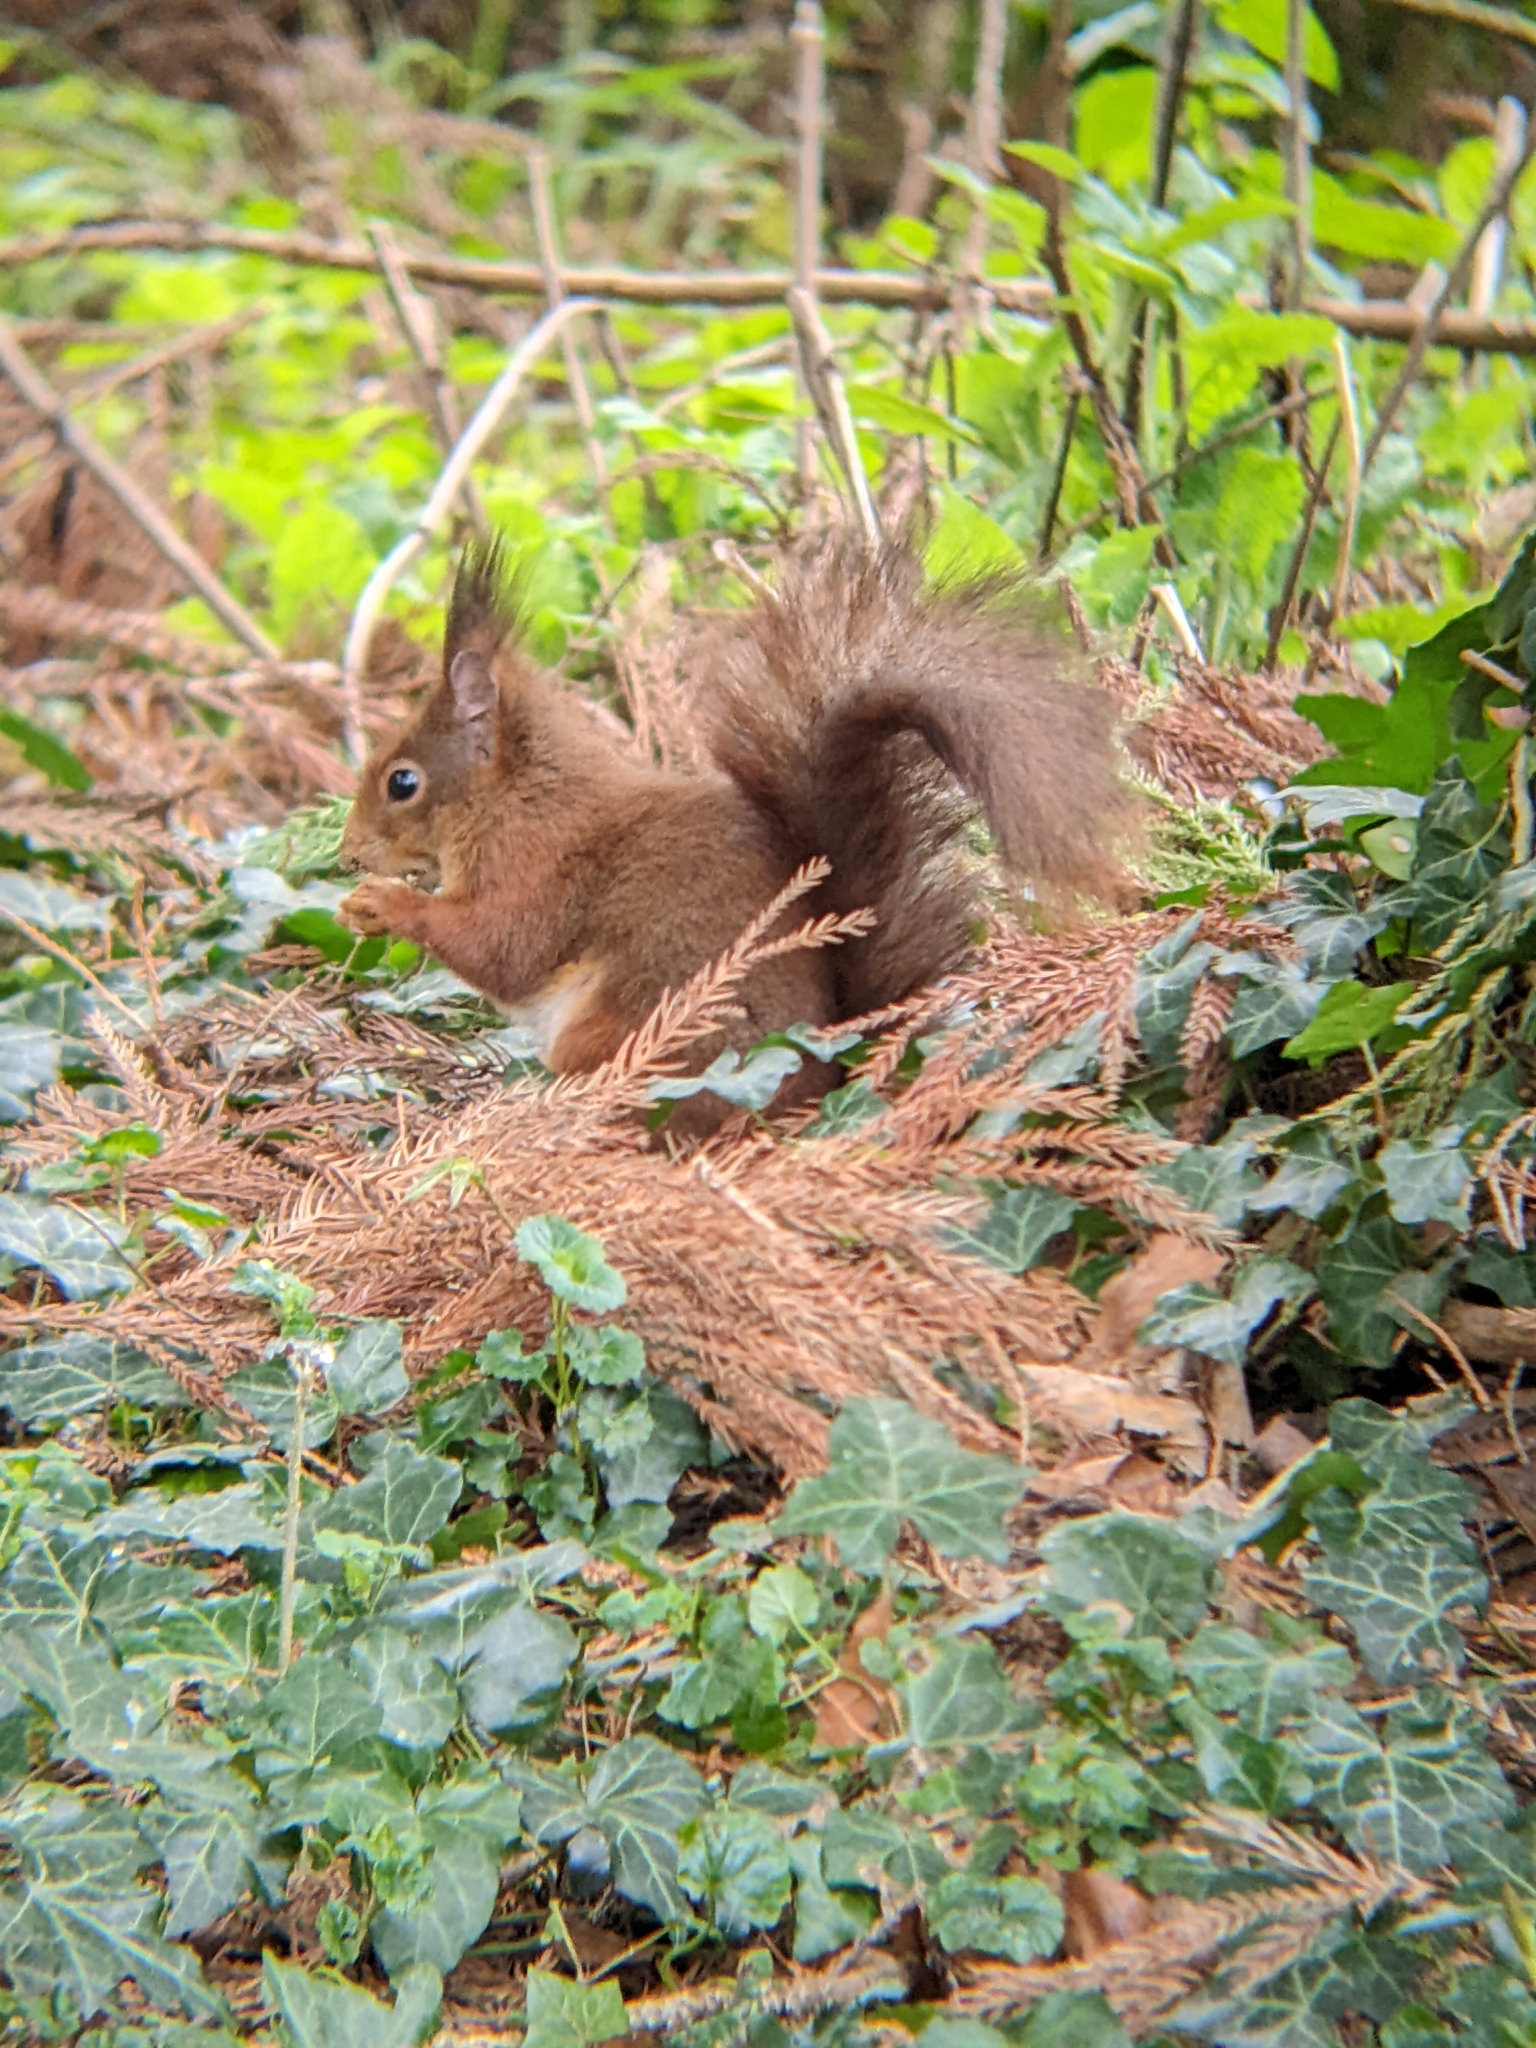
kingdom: Animalia
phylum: Chordata
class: Mammalia
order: Rodentia
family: Sciuridae
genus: Sciurus
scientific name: Sciurus vulgaris
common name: Eurasian red squirrel
